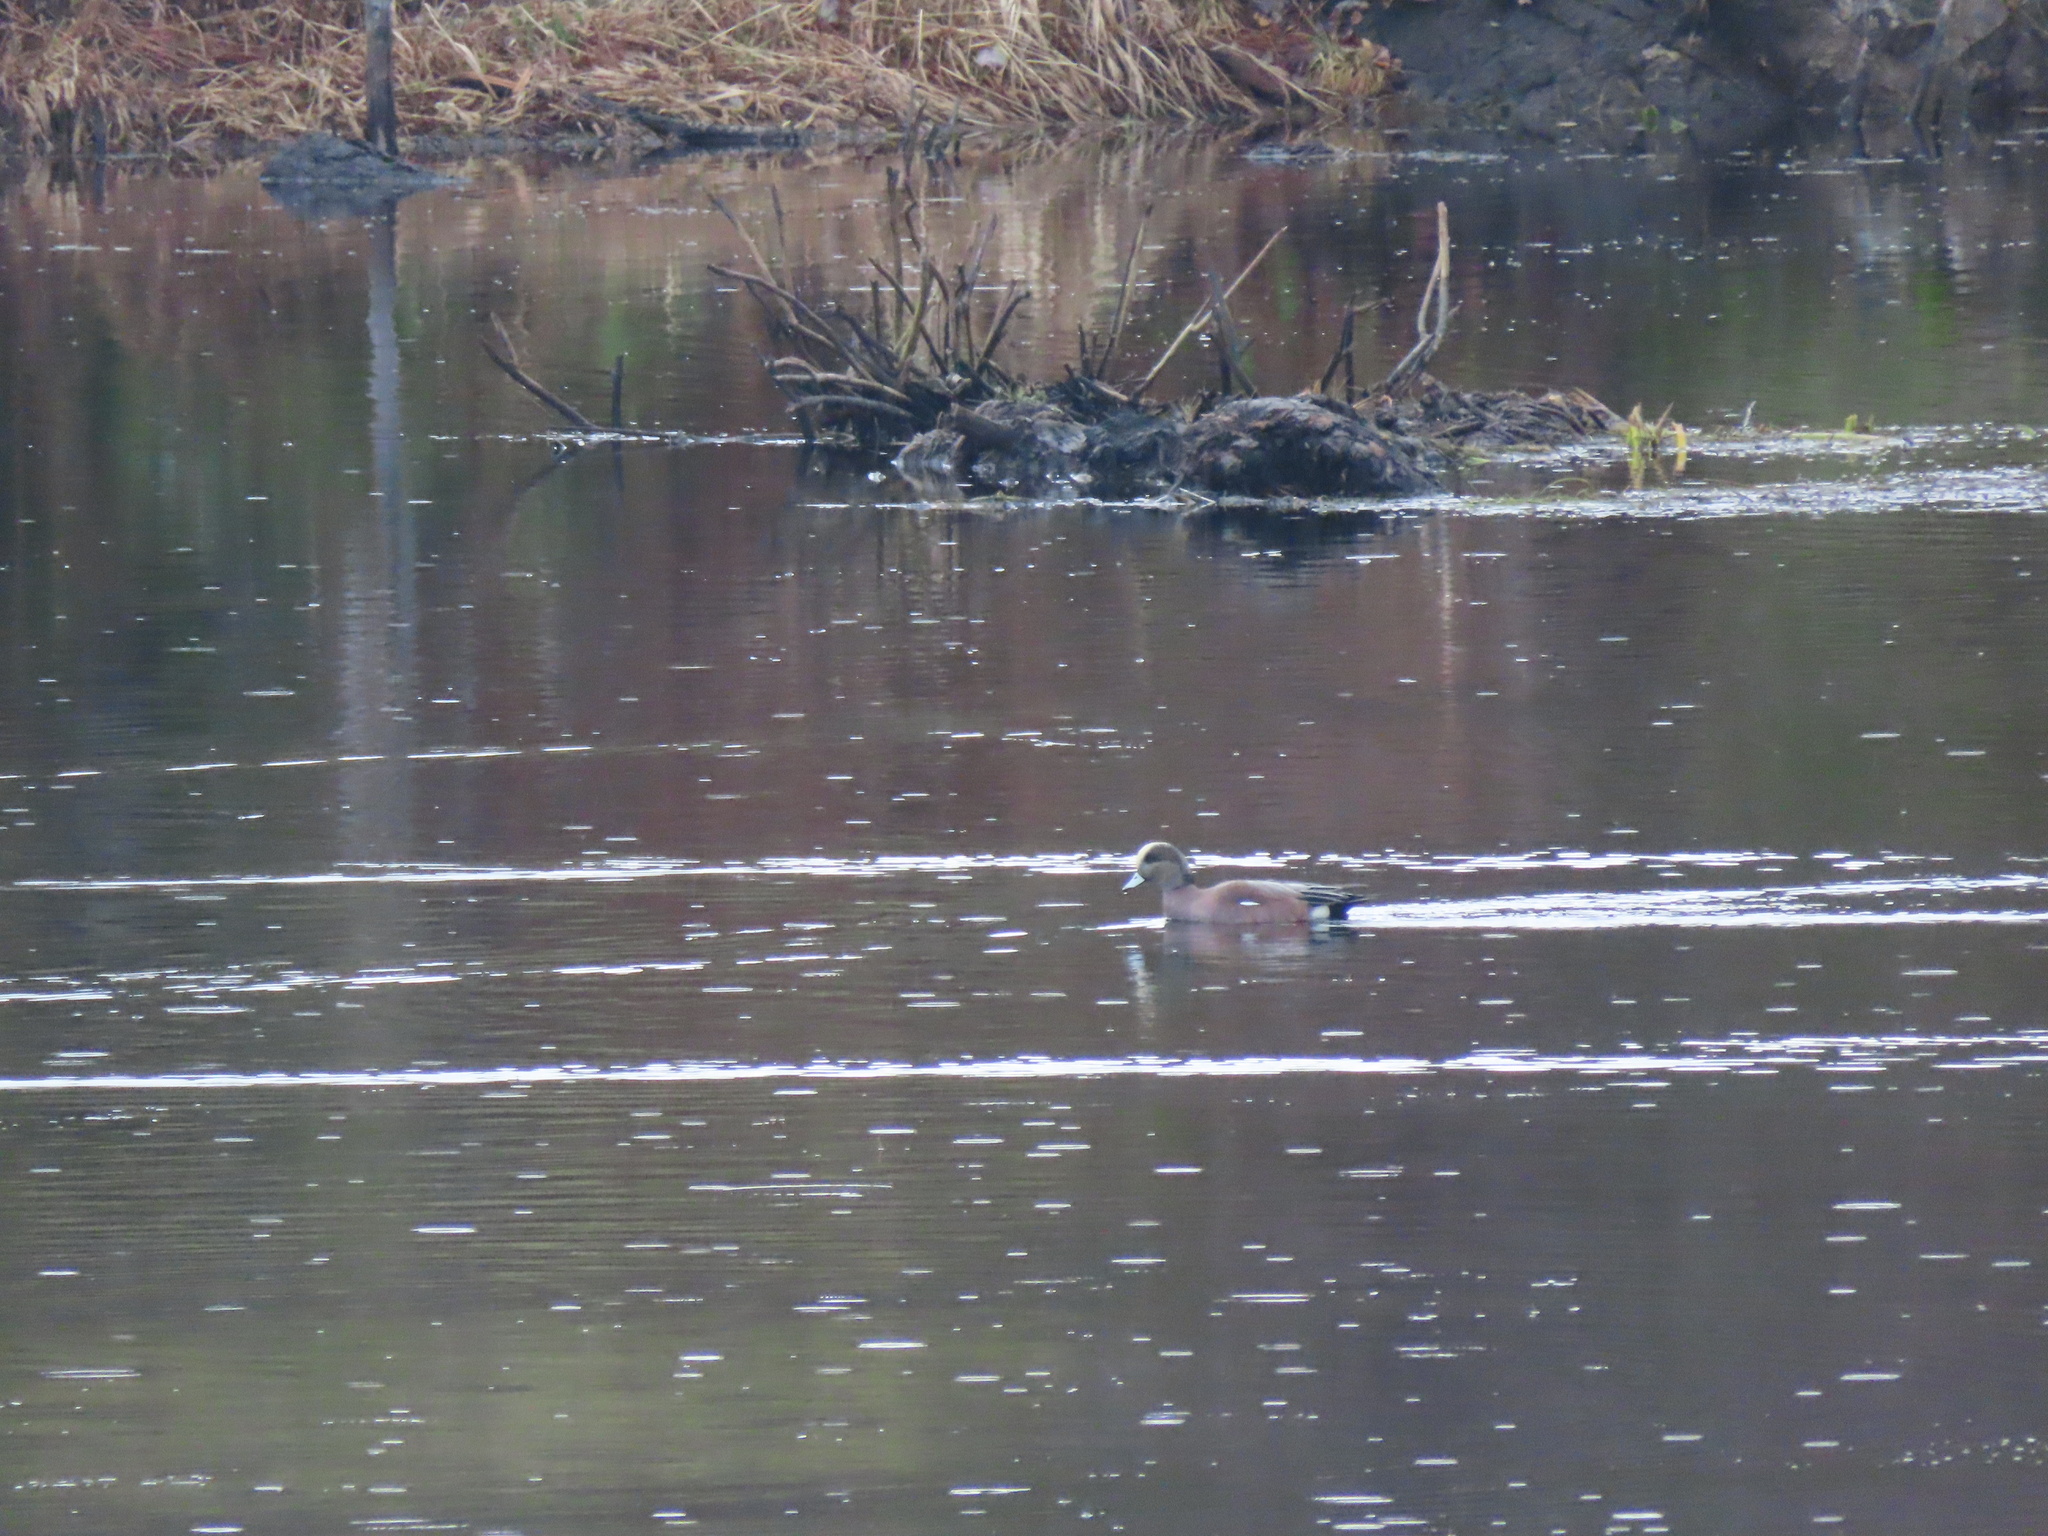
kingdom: Animalia
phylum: Chordata
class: Aves
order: Anseriformes
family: Anatidae
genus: Mareca
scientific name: Mareca americana
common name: American wigeon
